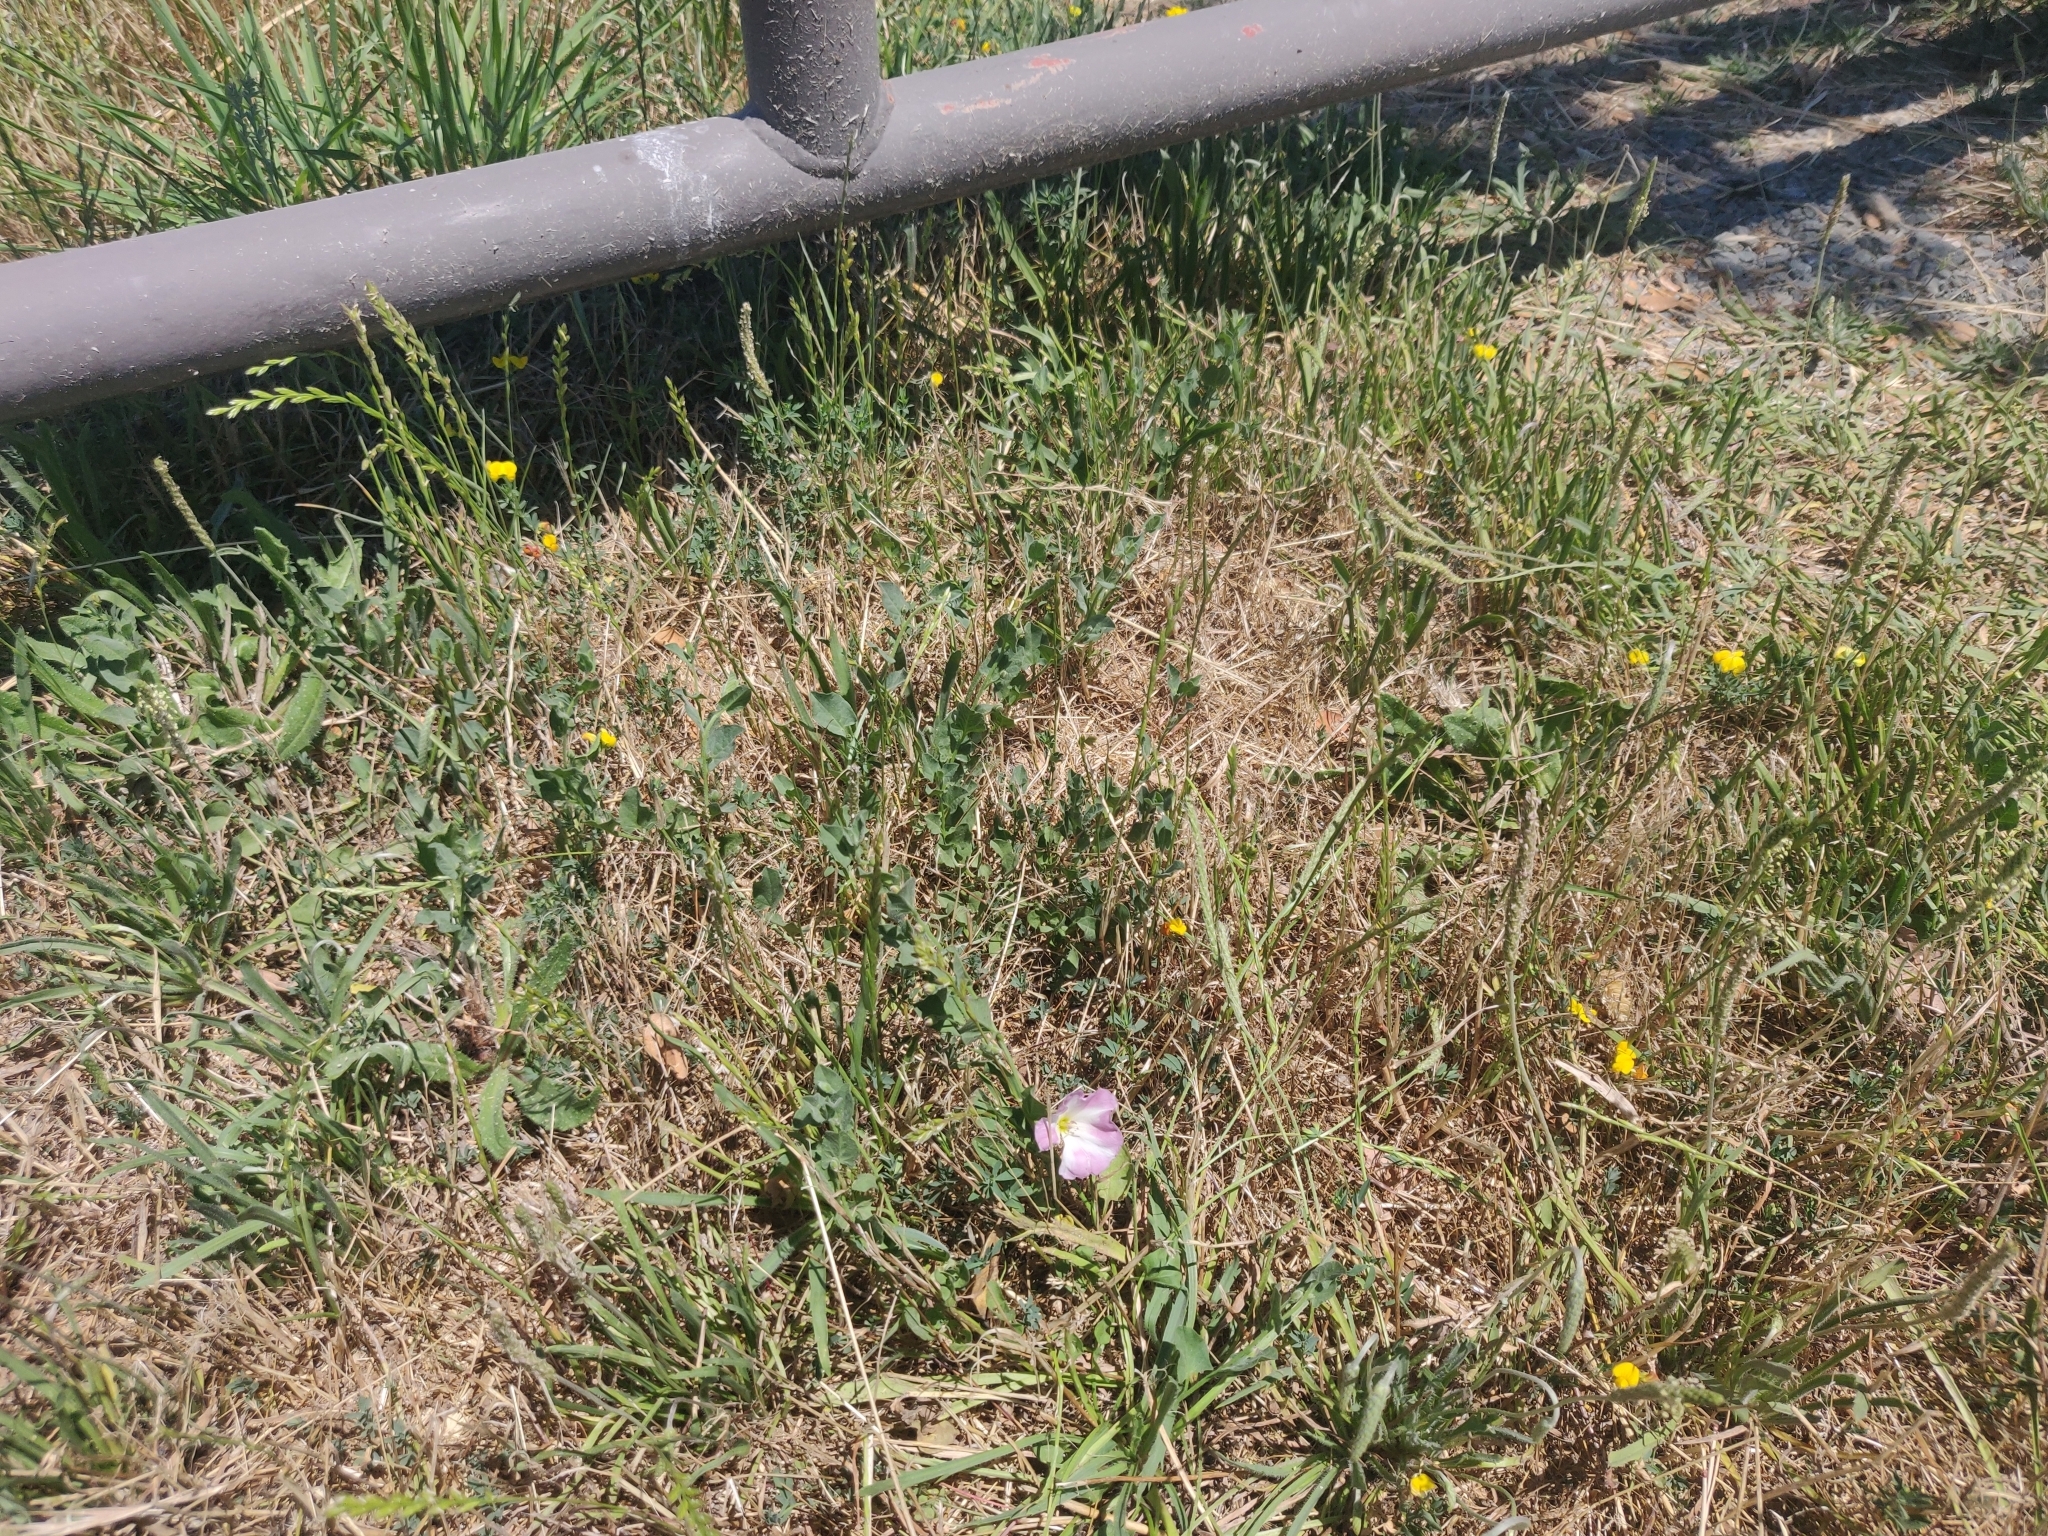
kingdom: Plantae
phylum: Tracheophyta
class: Magnoliopsida
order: Solanales
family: Convolvulaceae
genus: Convolvulus
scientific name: Convolvulus arvensis
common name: Field bindweed
